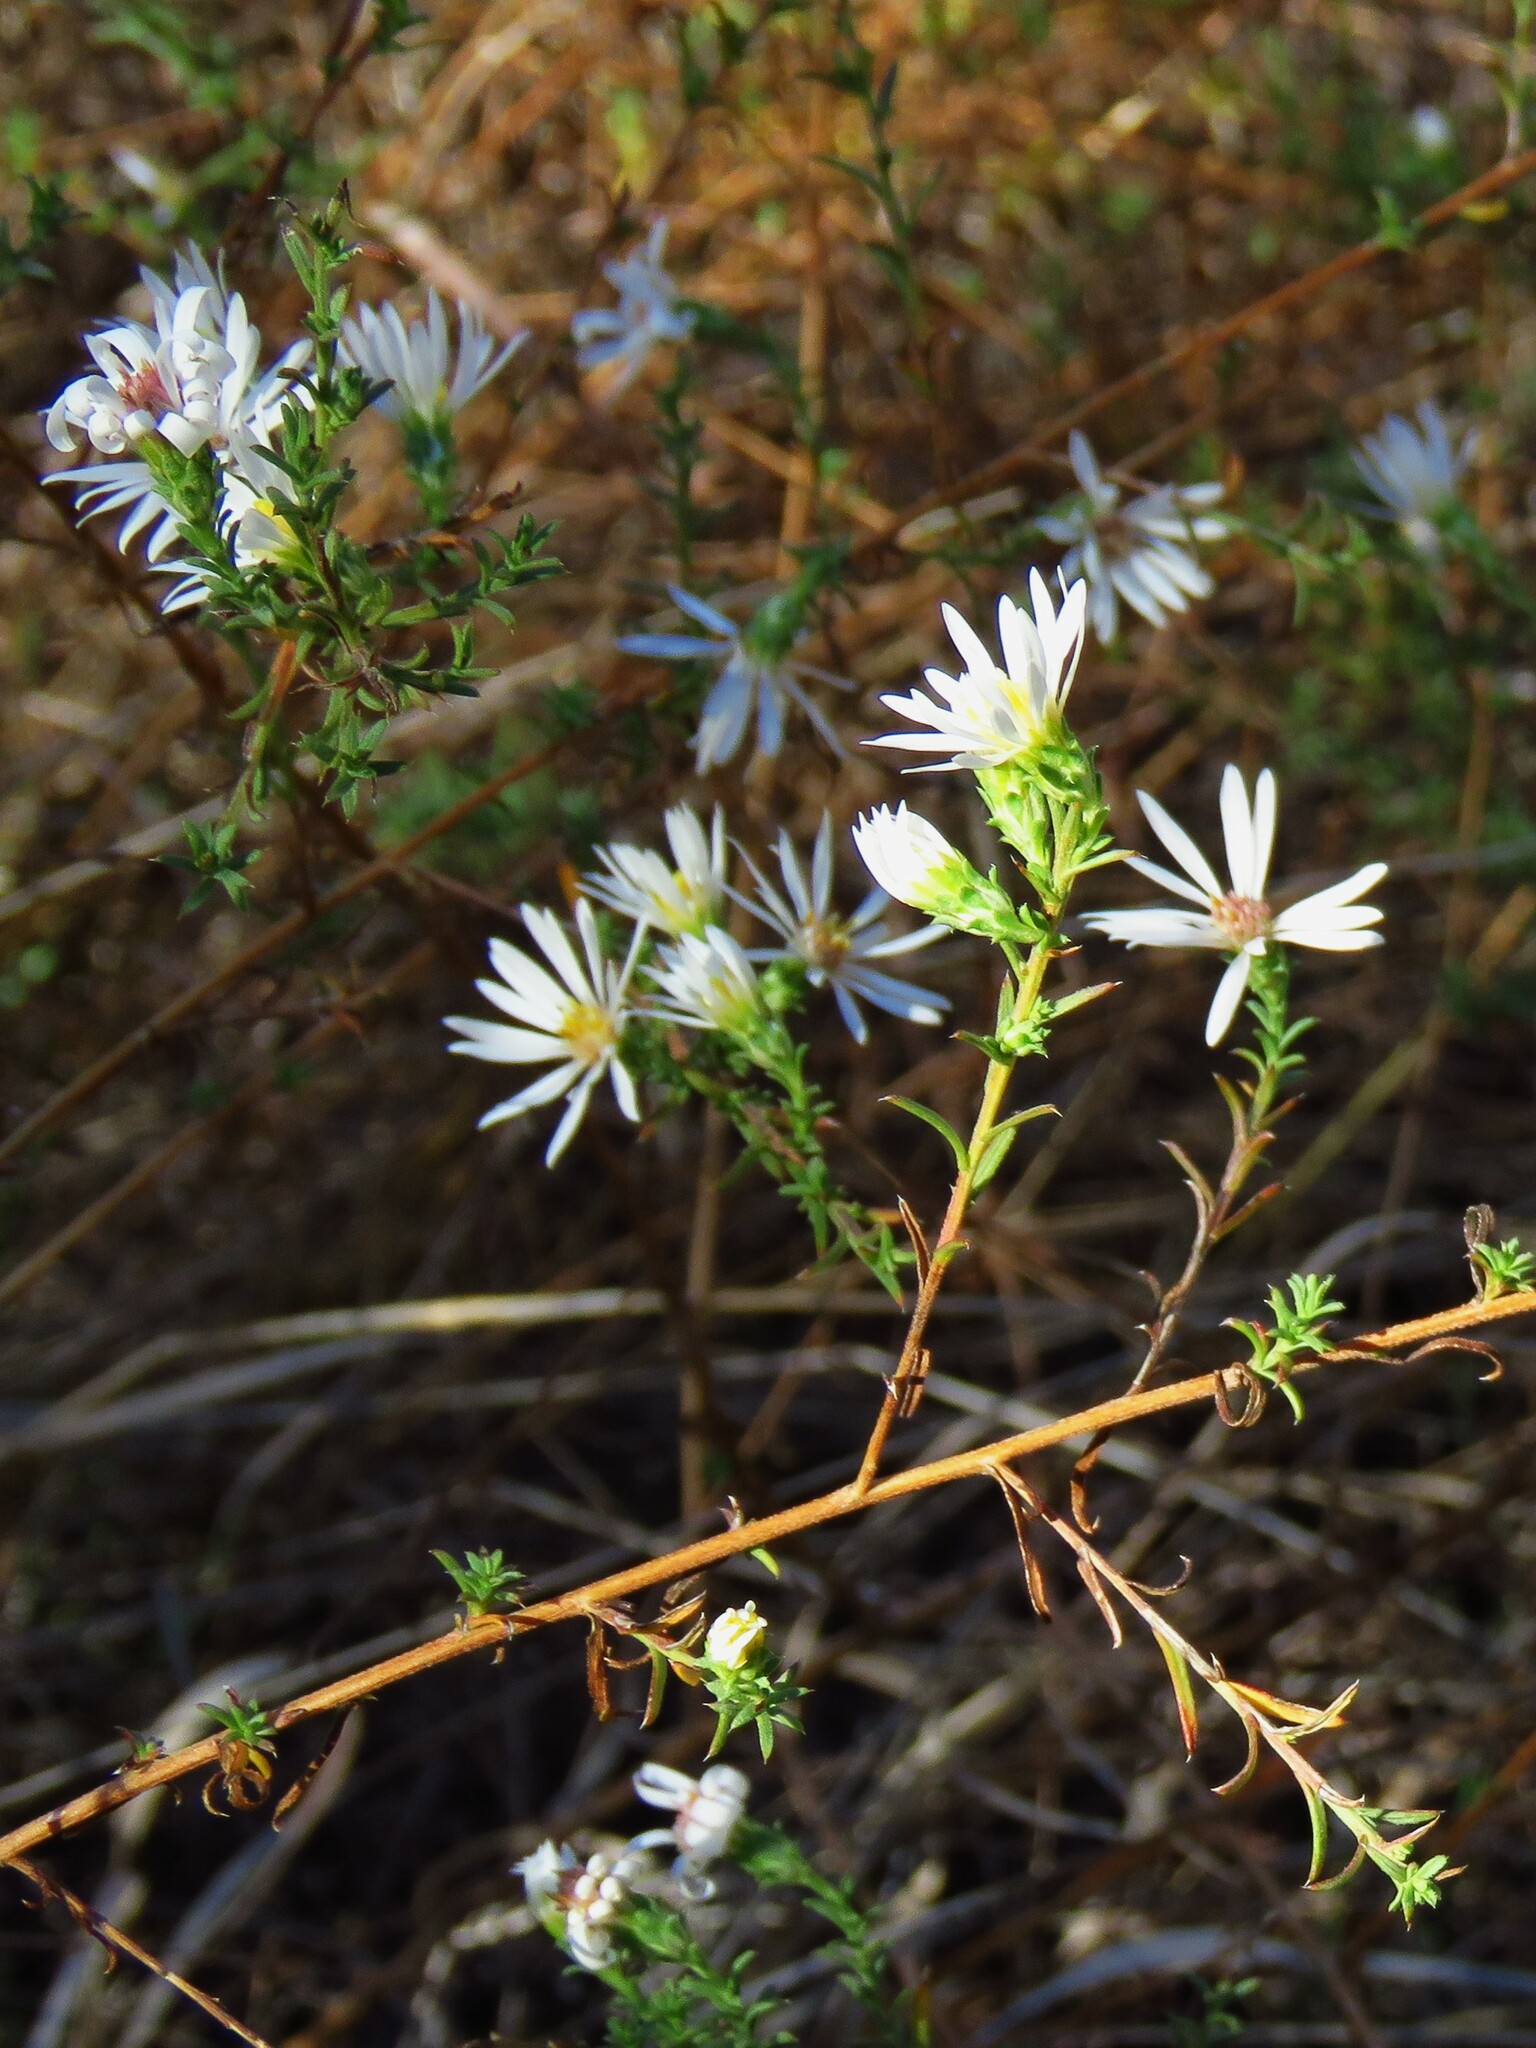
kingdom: Plantae
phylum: Tracheophyta
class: Magnoliopsida
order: Asterales
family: Asteraceae
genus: Symphyotrichum
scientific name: Symphyotrichum ericoides
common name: Heath aster
